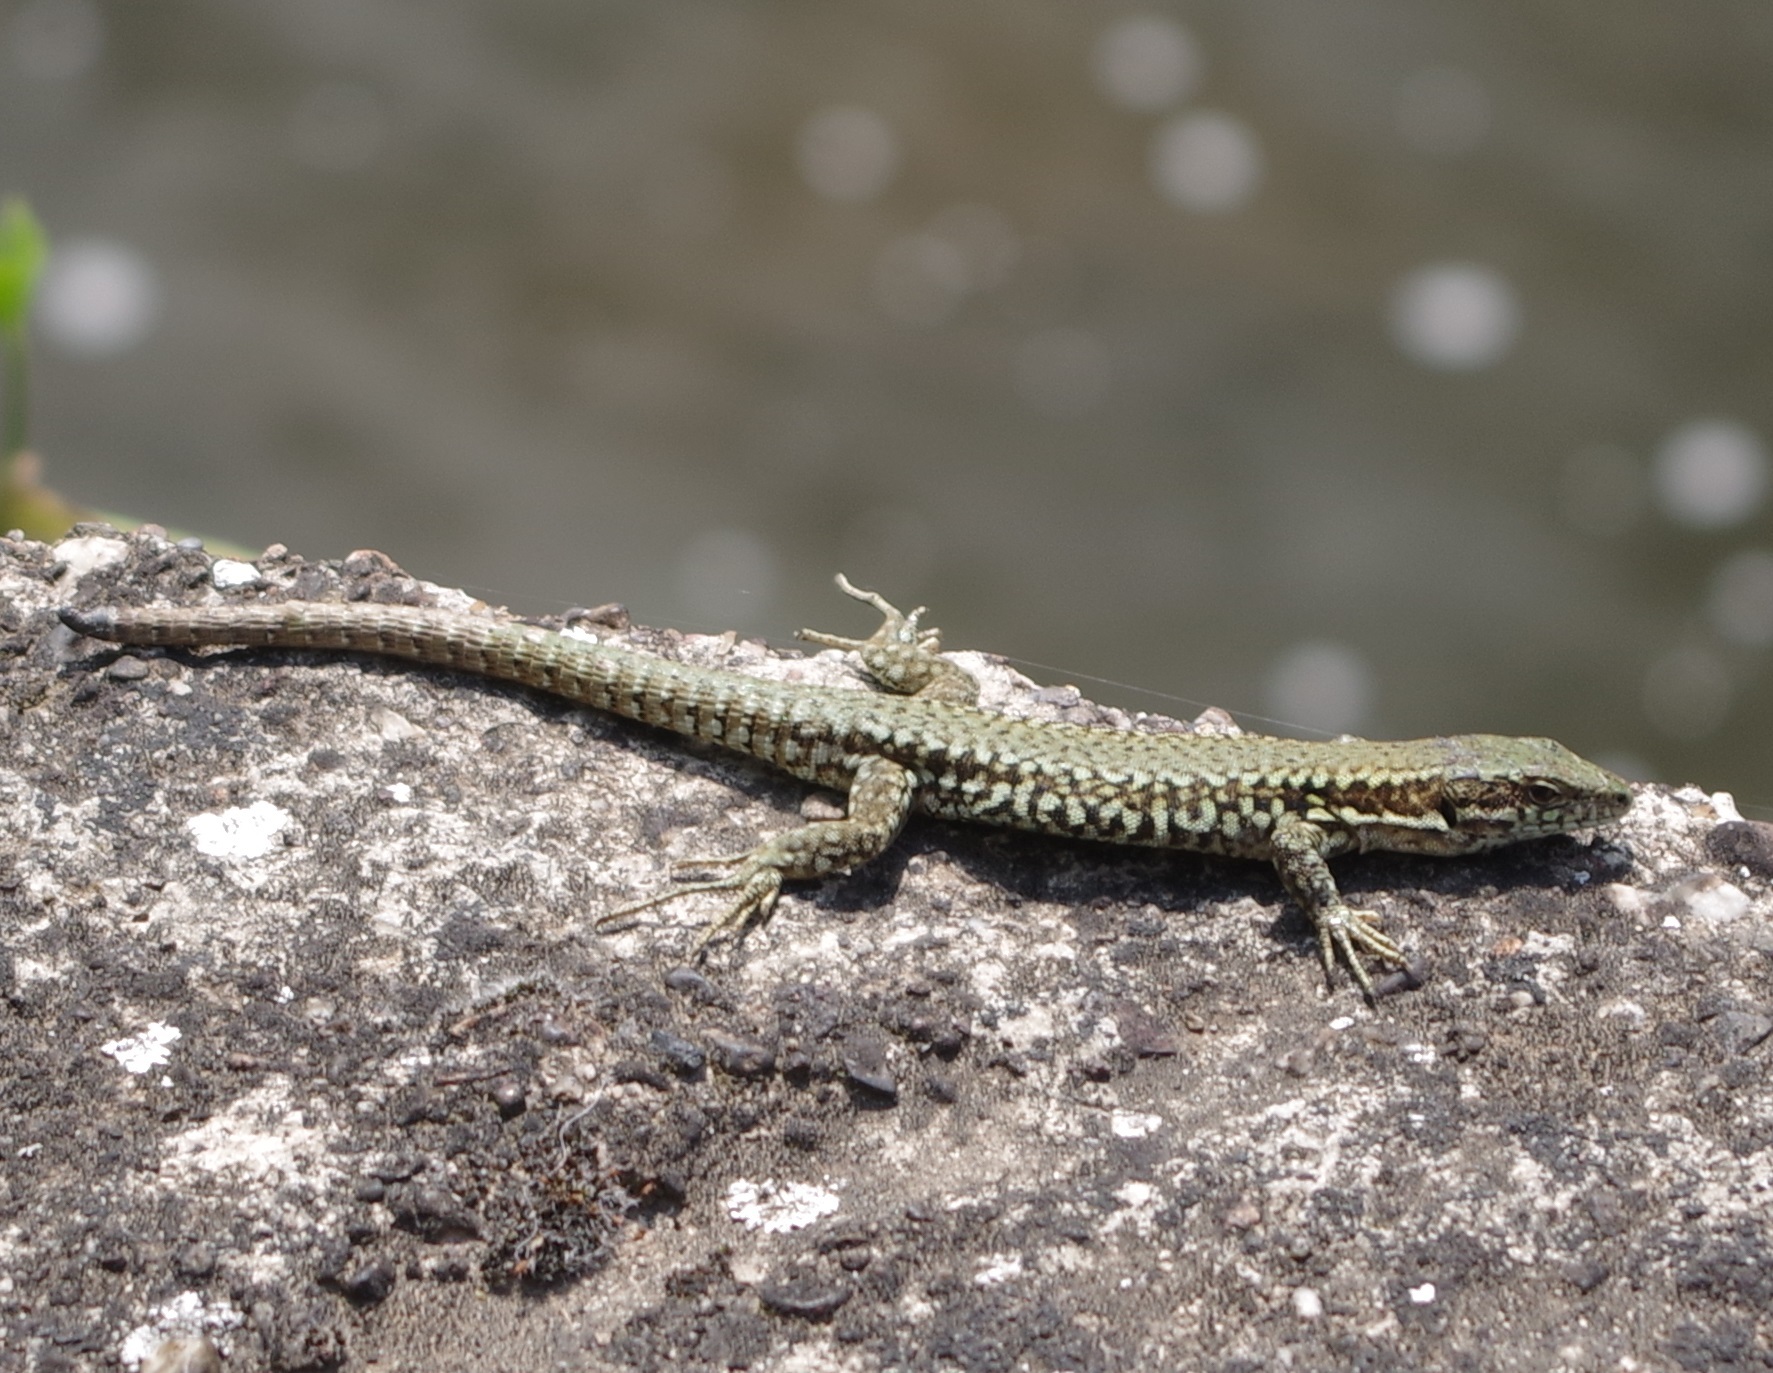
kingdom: Animalia
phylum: Chordata
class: Squamata
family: Lacertidae
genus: Podarcis
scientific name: Podarcis muralis
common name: Common wall lizard
